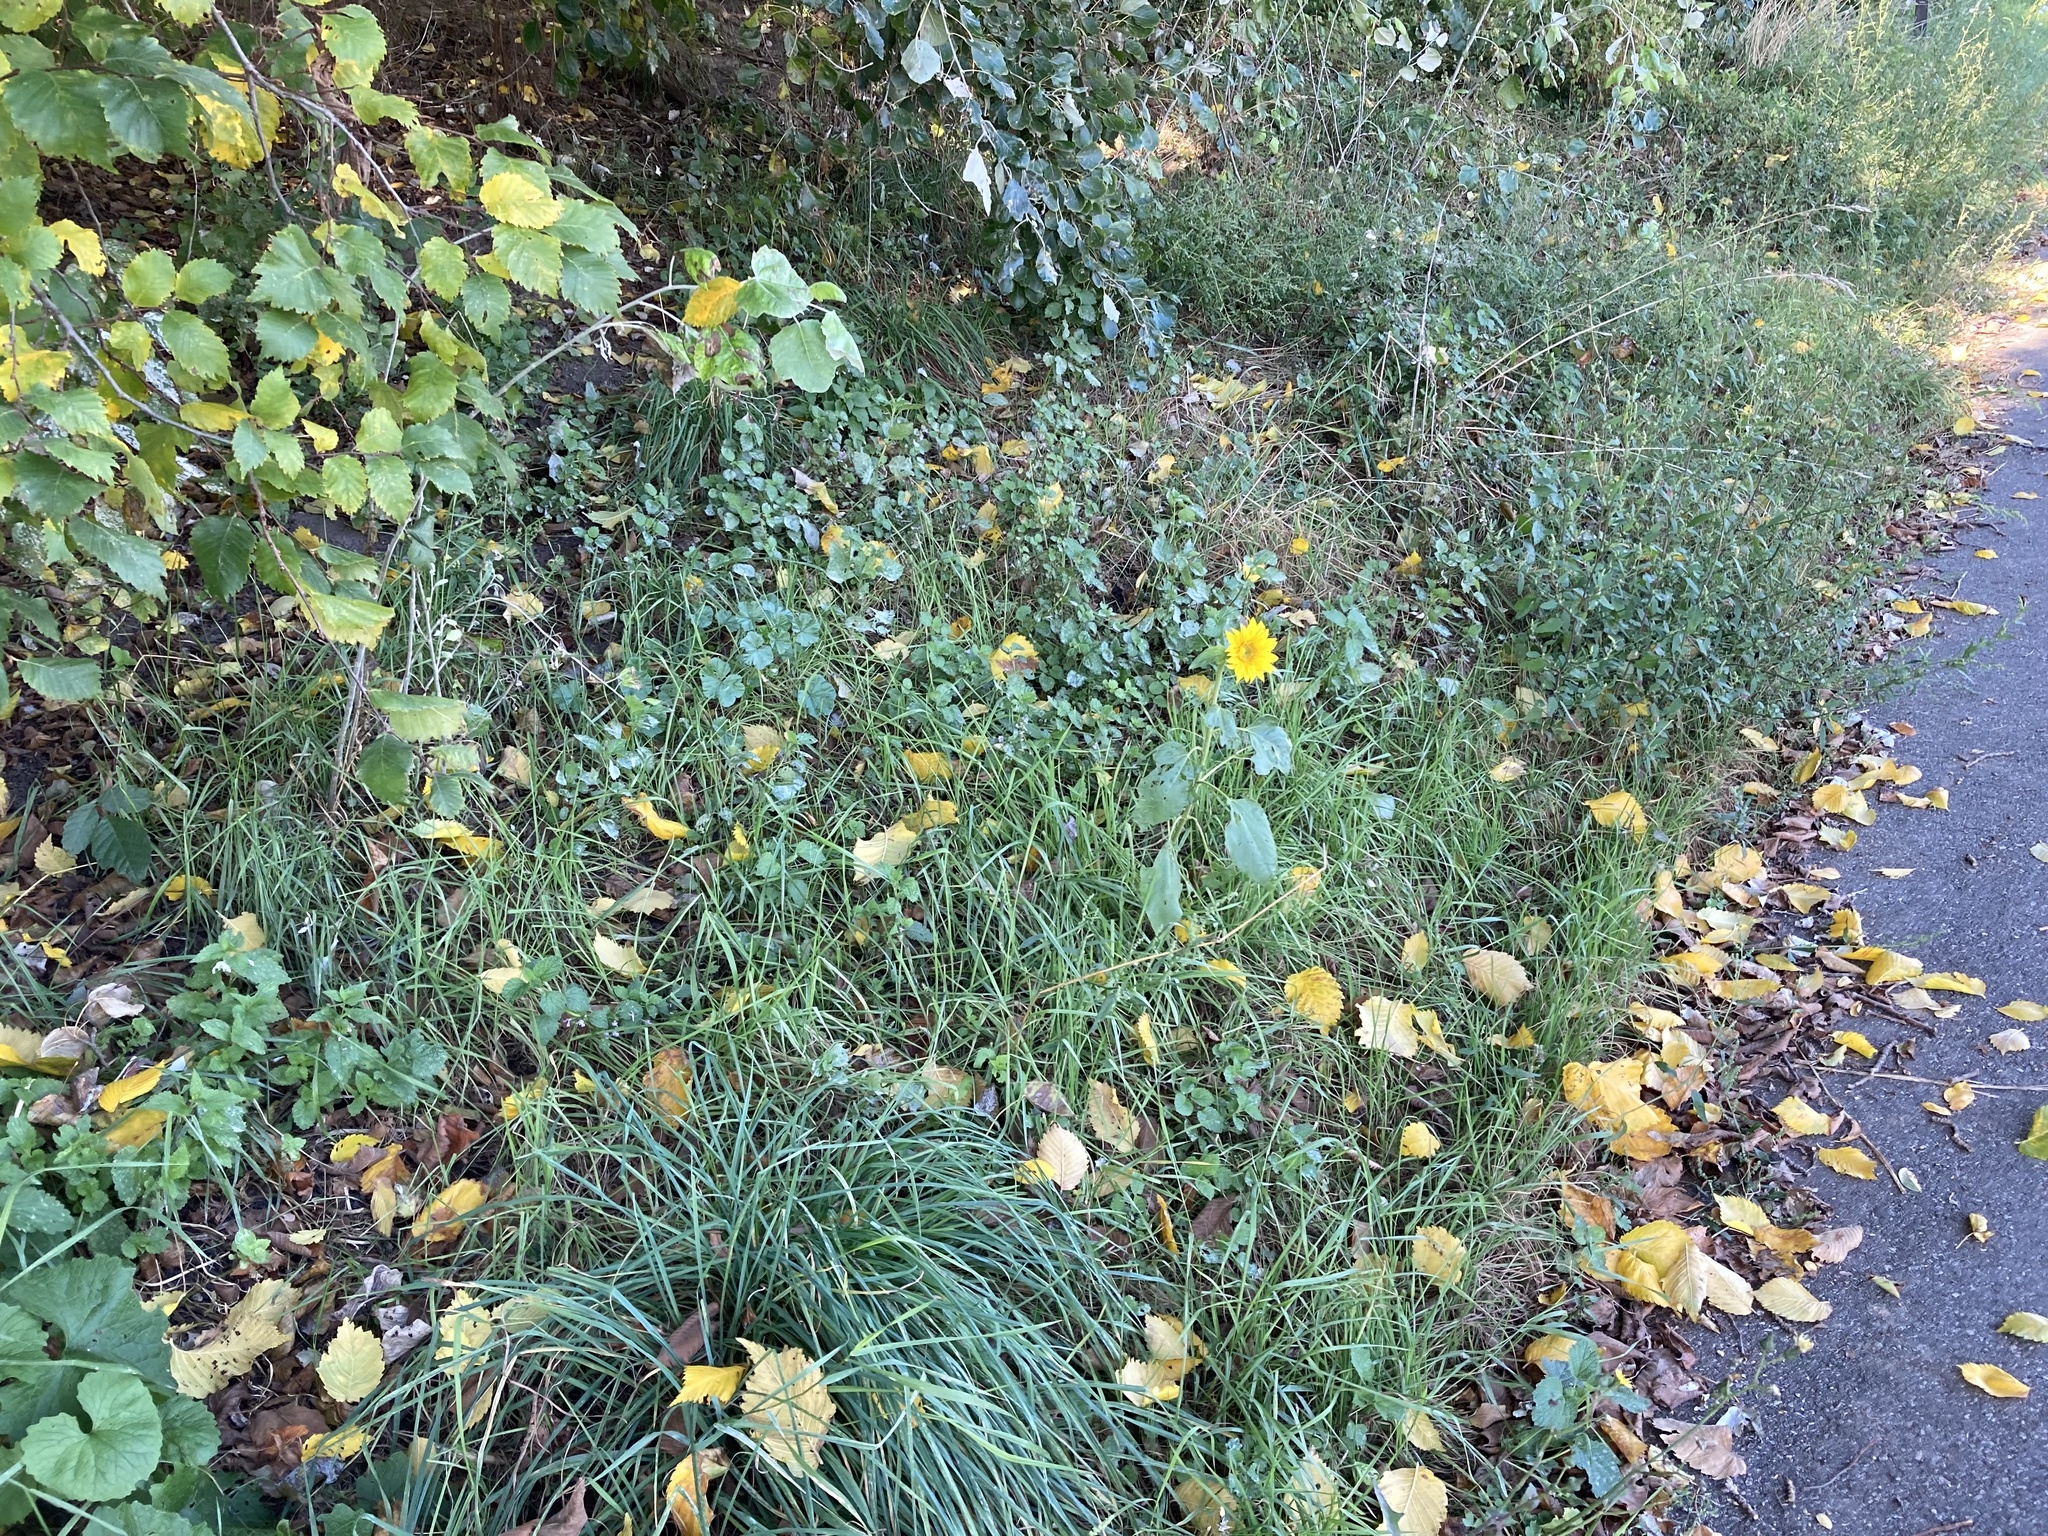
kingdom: Plantae
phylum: Tracheophyta
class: Magnoliopsida
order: Asterales
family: Asteraceae
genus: Helianthus
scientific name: Helianthus annuus
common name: Sunflower
